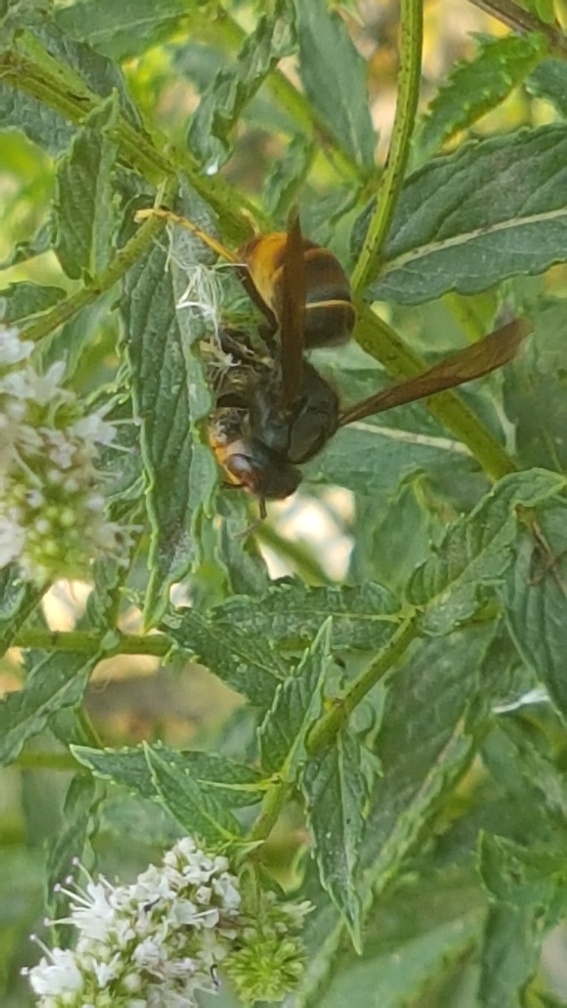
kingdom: Animalia
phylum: Arthropoda
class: Insecta
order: Hymenoptera
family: Vespidae
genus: Vespa
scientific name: Vespa velutina
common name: Asian hornet
